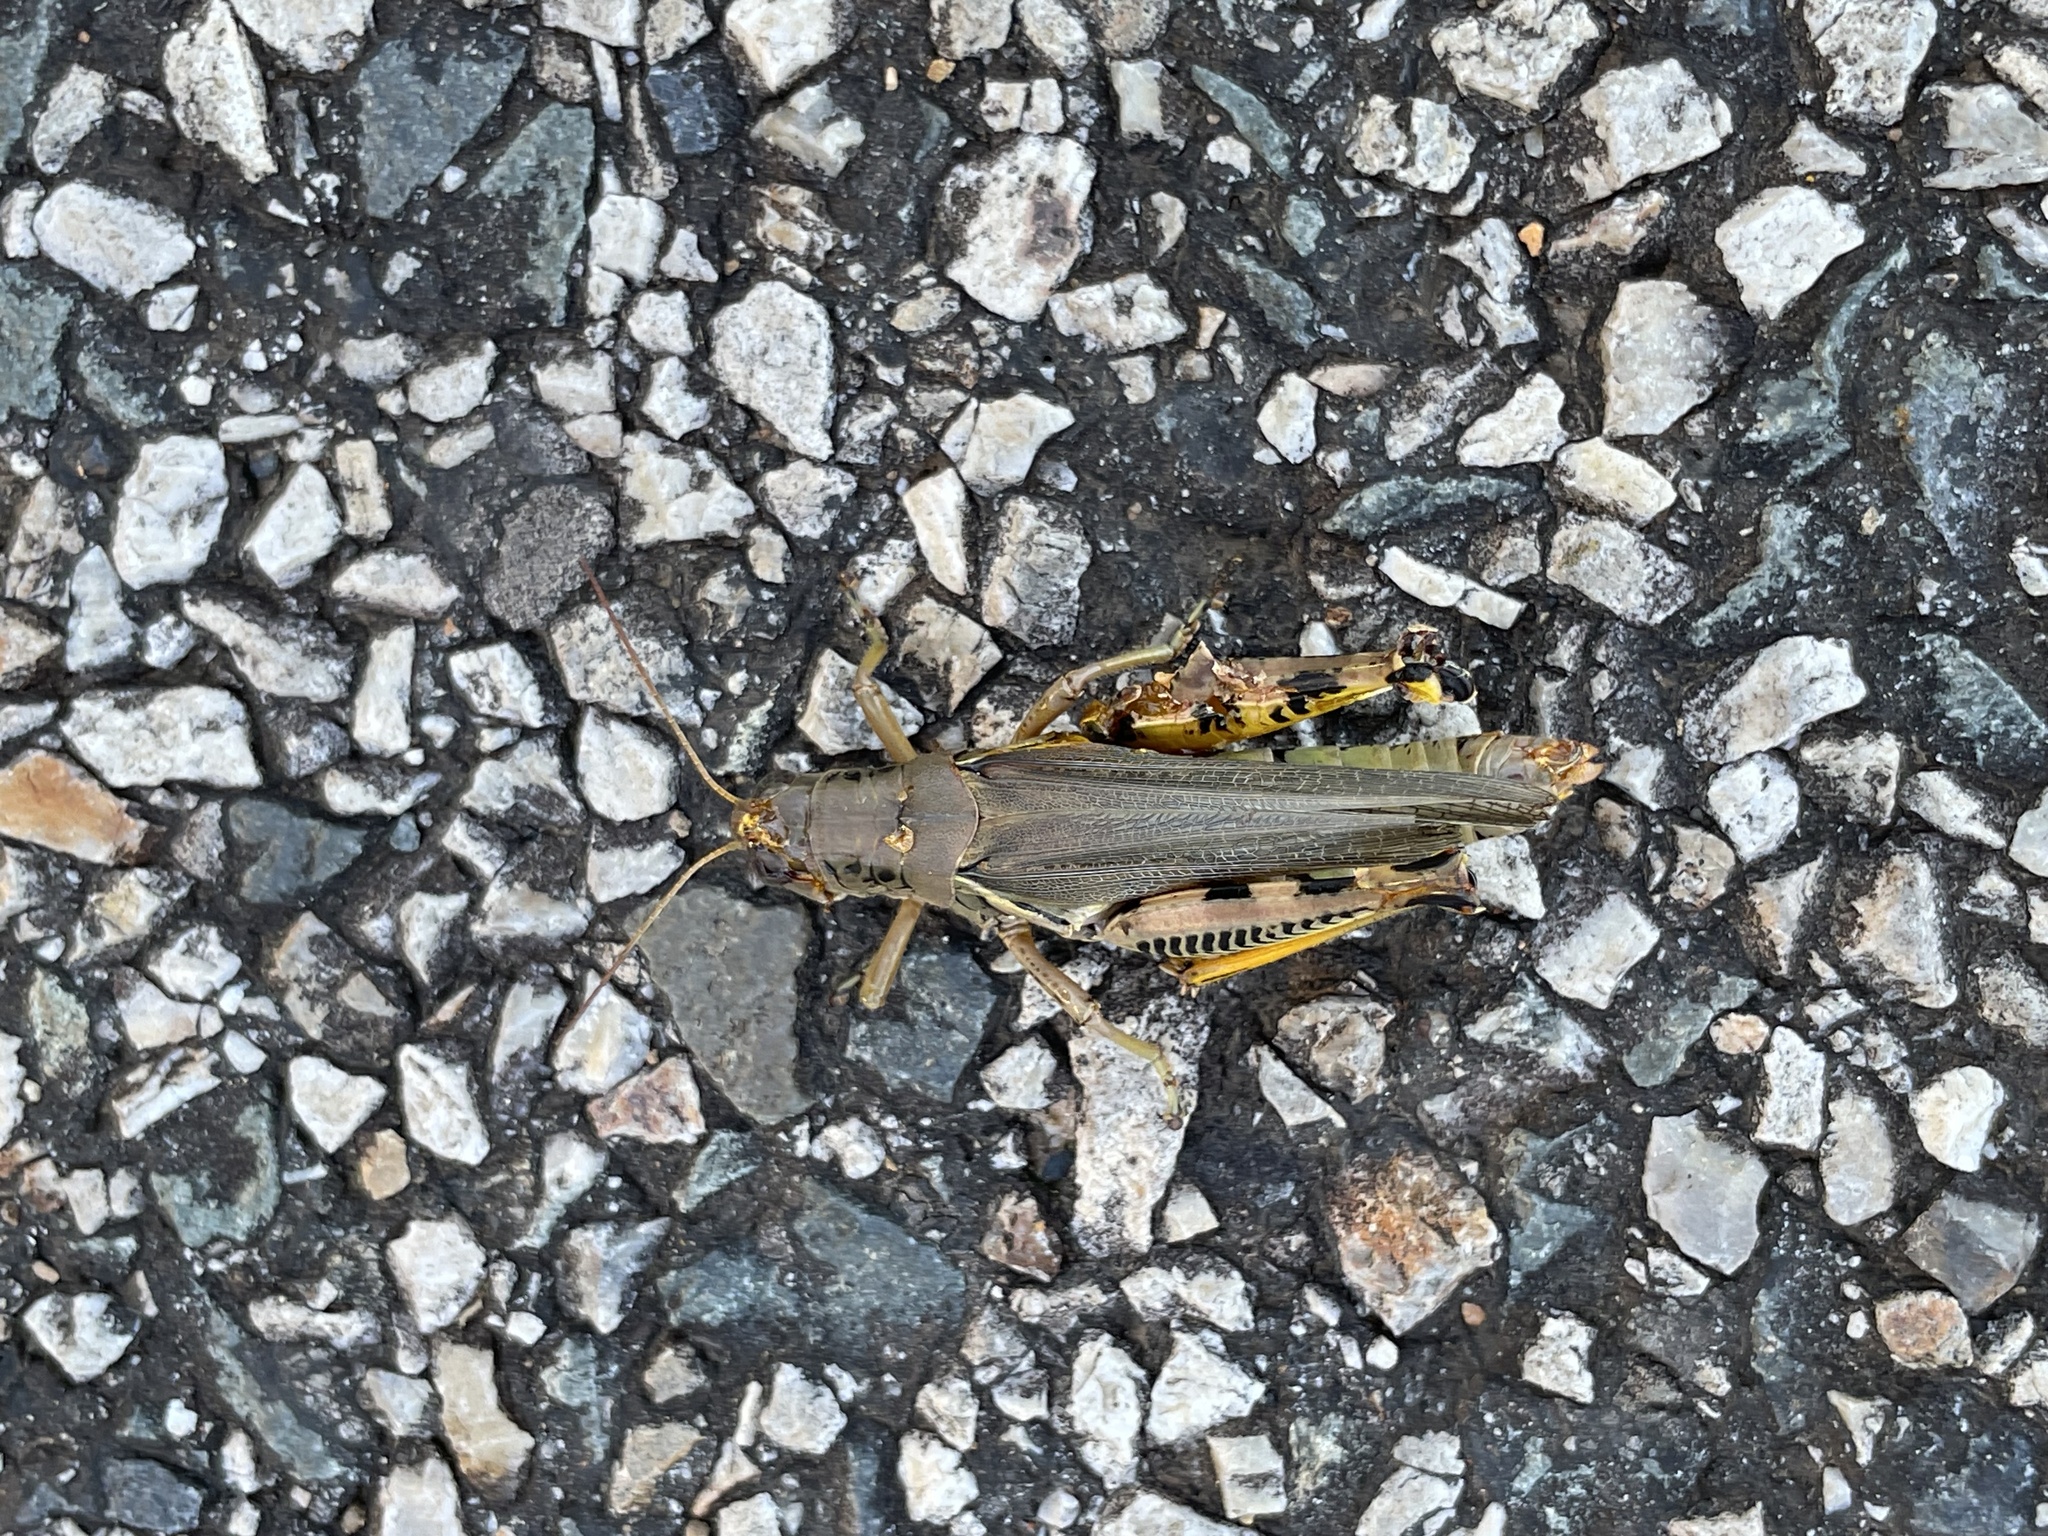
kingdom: Animalia
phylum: Arthropoda
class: Insecta
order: Orthoptera
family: Acrididae
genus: Melanoplus
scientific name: Melanoplus differentialis
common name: Differential grasshopper
